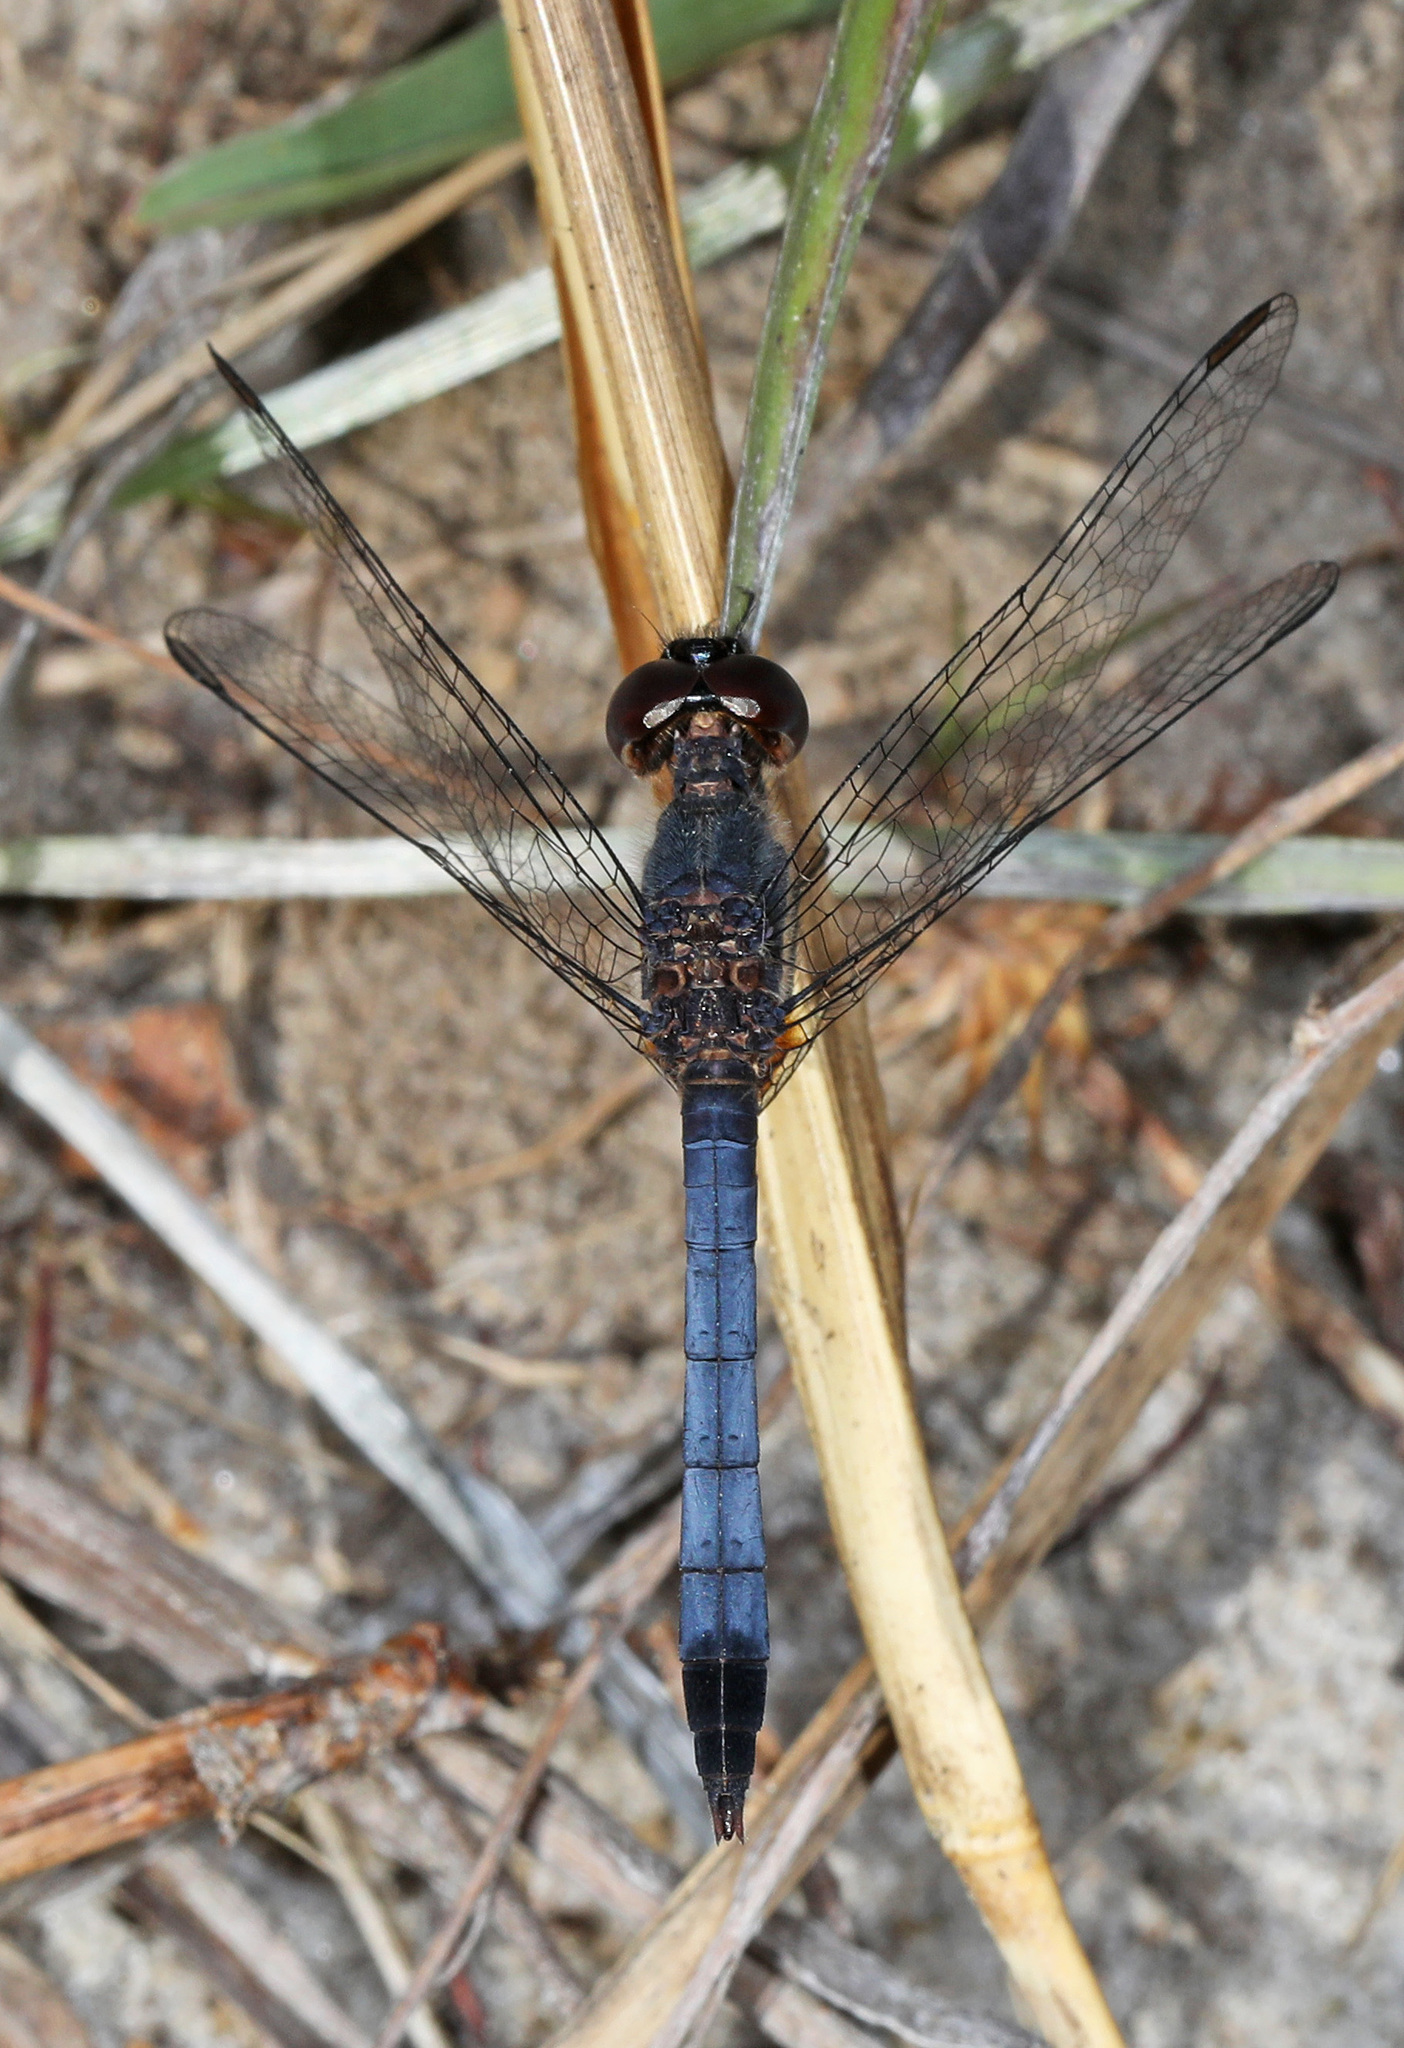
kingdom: Animalia
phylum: Arthropoda
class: Insecta
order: Odonata
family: Libellulidae
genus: Erythrodiplax
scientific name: Erythrodiplax minuscula
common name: Little blue dragonlet
